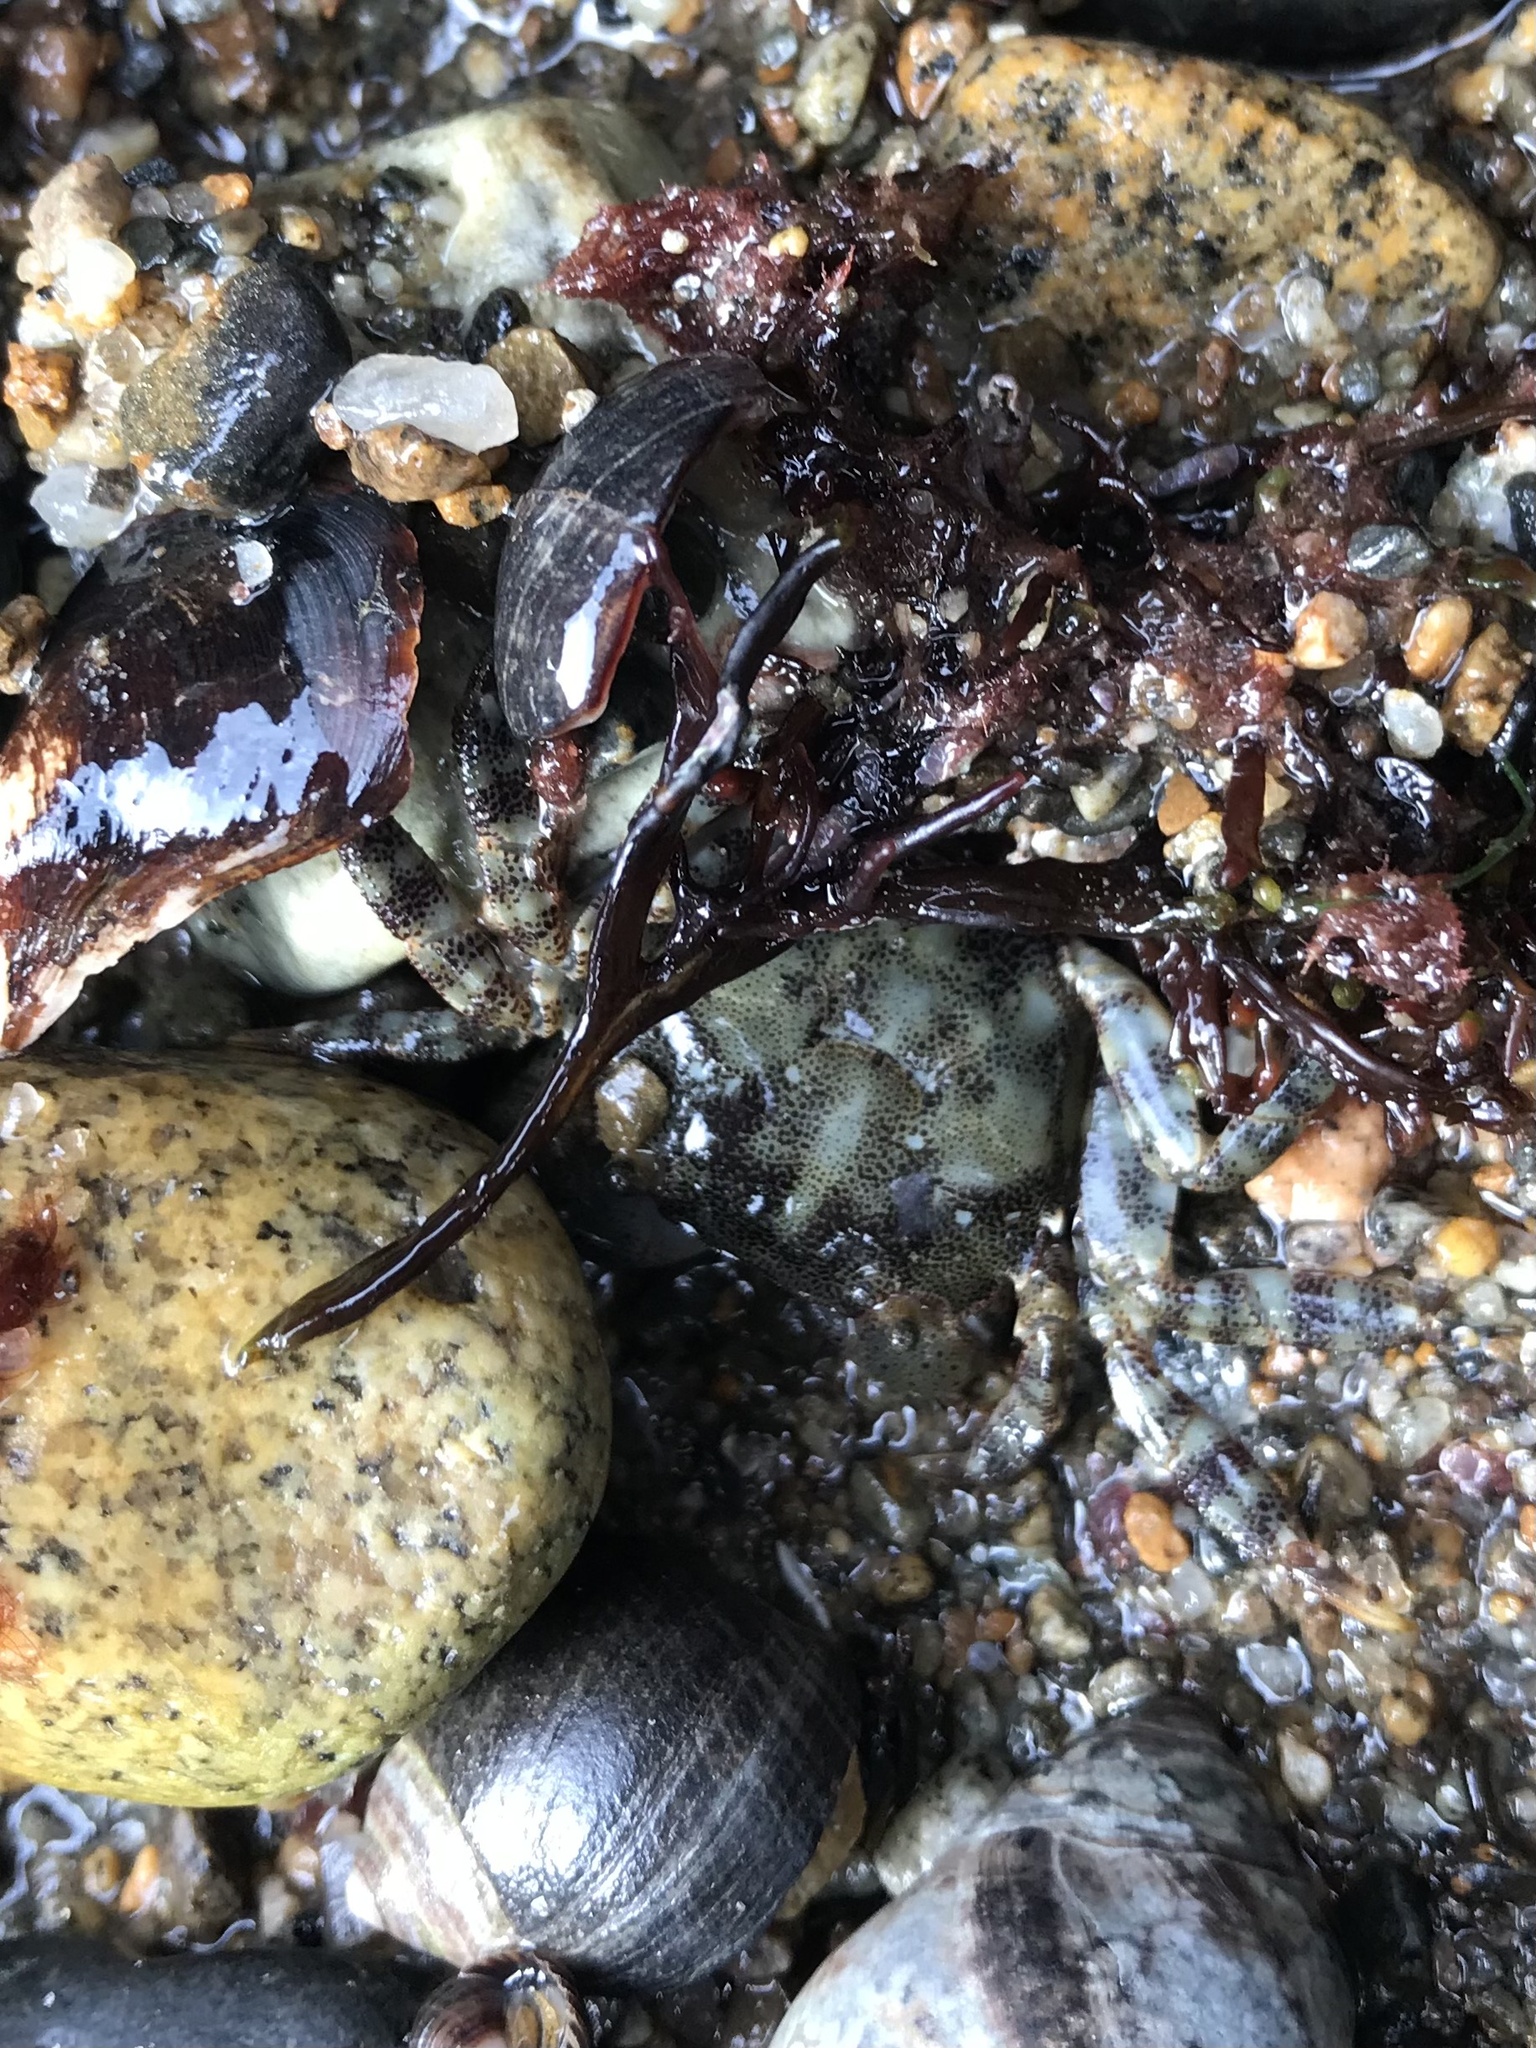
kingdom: Animalia
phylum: Arthropoda
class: Malacostraca
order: Decapoda
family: Varunidae
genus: Hemigrapsus
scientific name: Hemigrapsus sanguineus
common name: Asian shore crab
